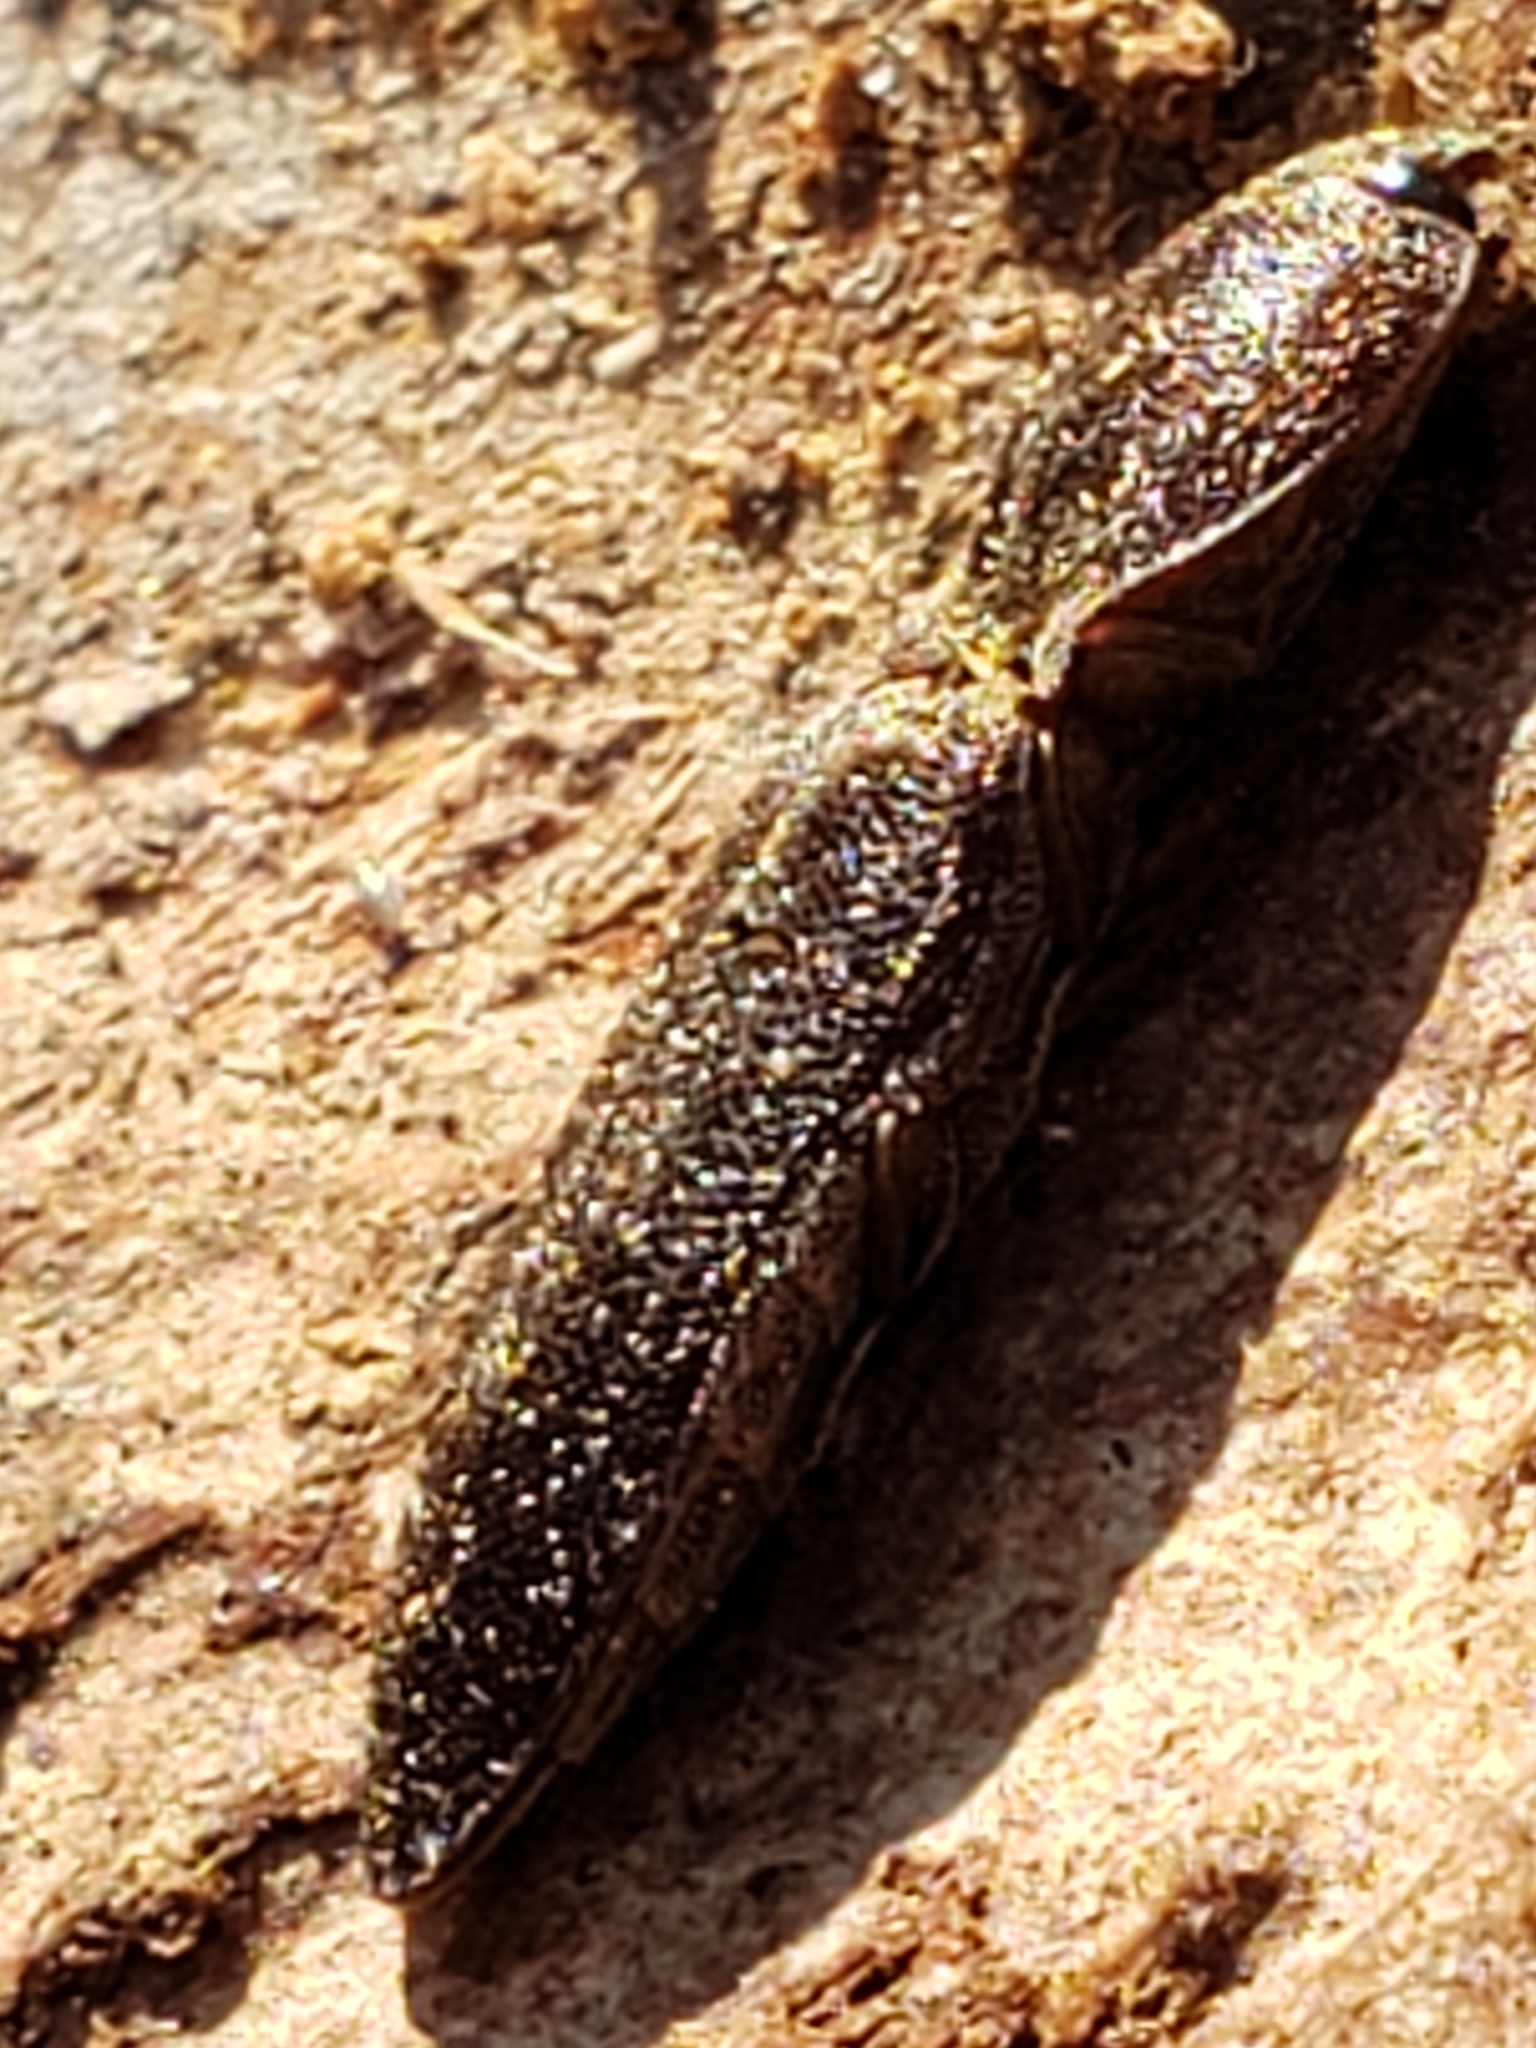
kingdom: Animalia
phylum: Arthropoda
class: Insecta
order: Coleoptera
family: Elateridae
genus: Lacon
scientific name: Lacon impressicollis
